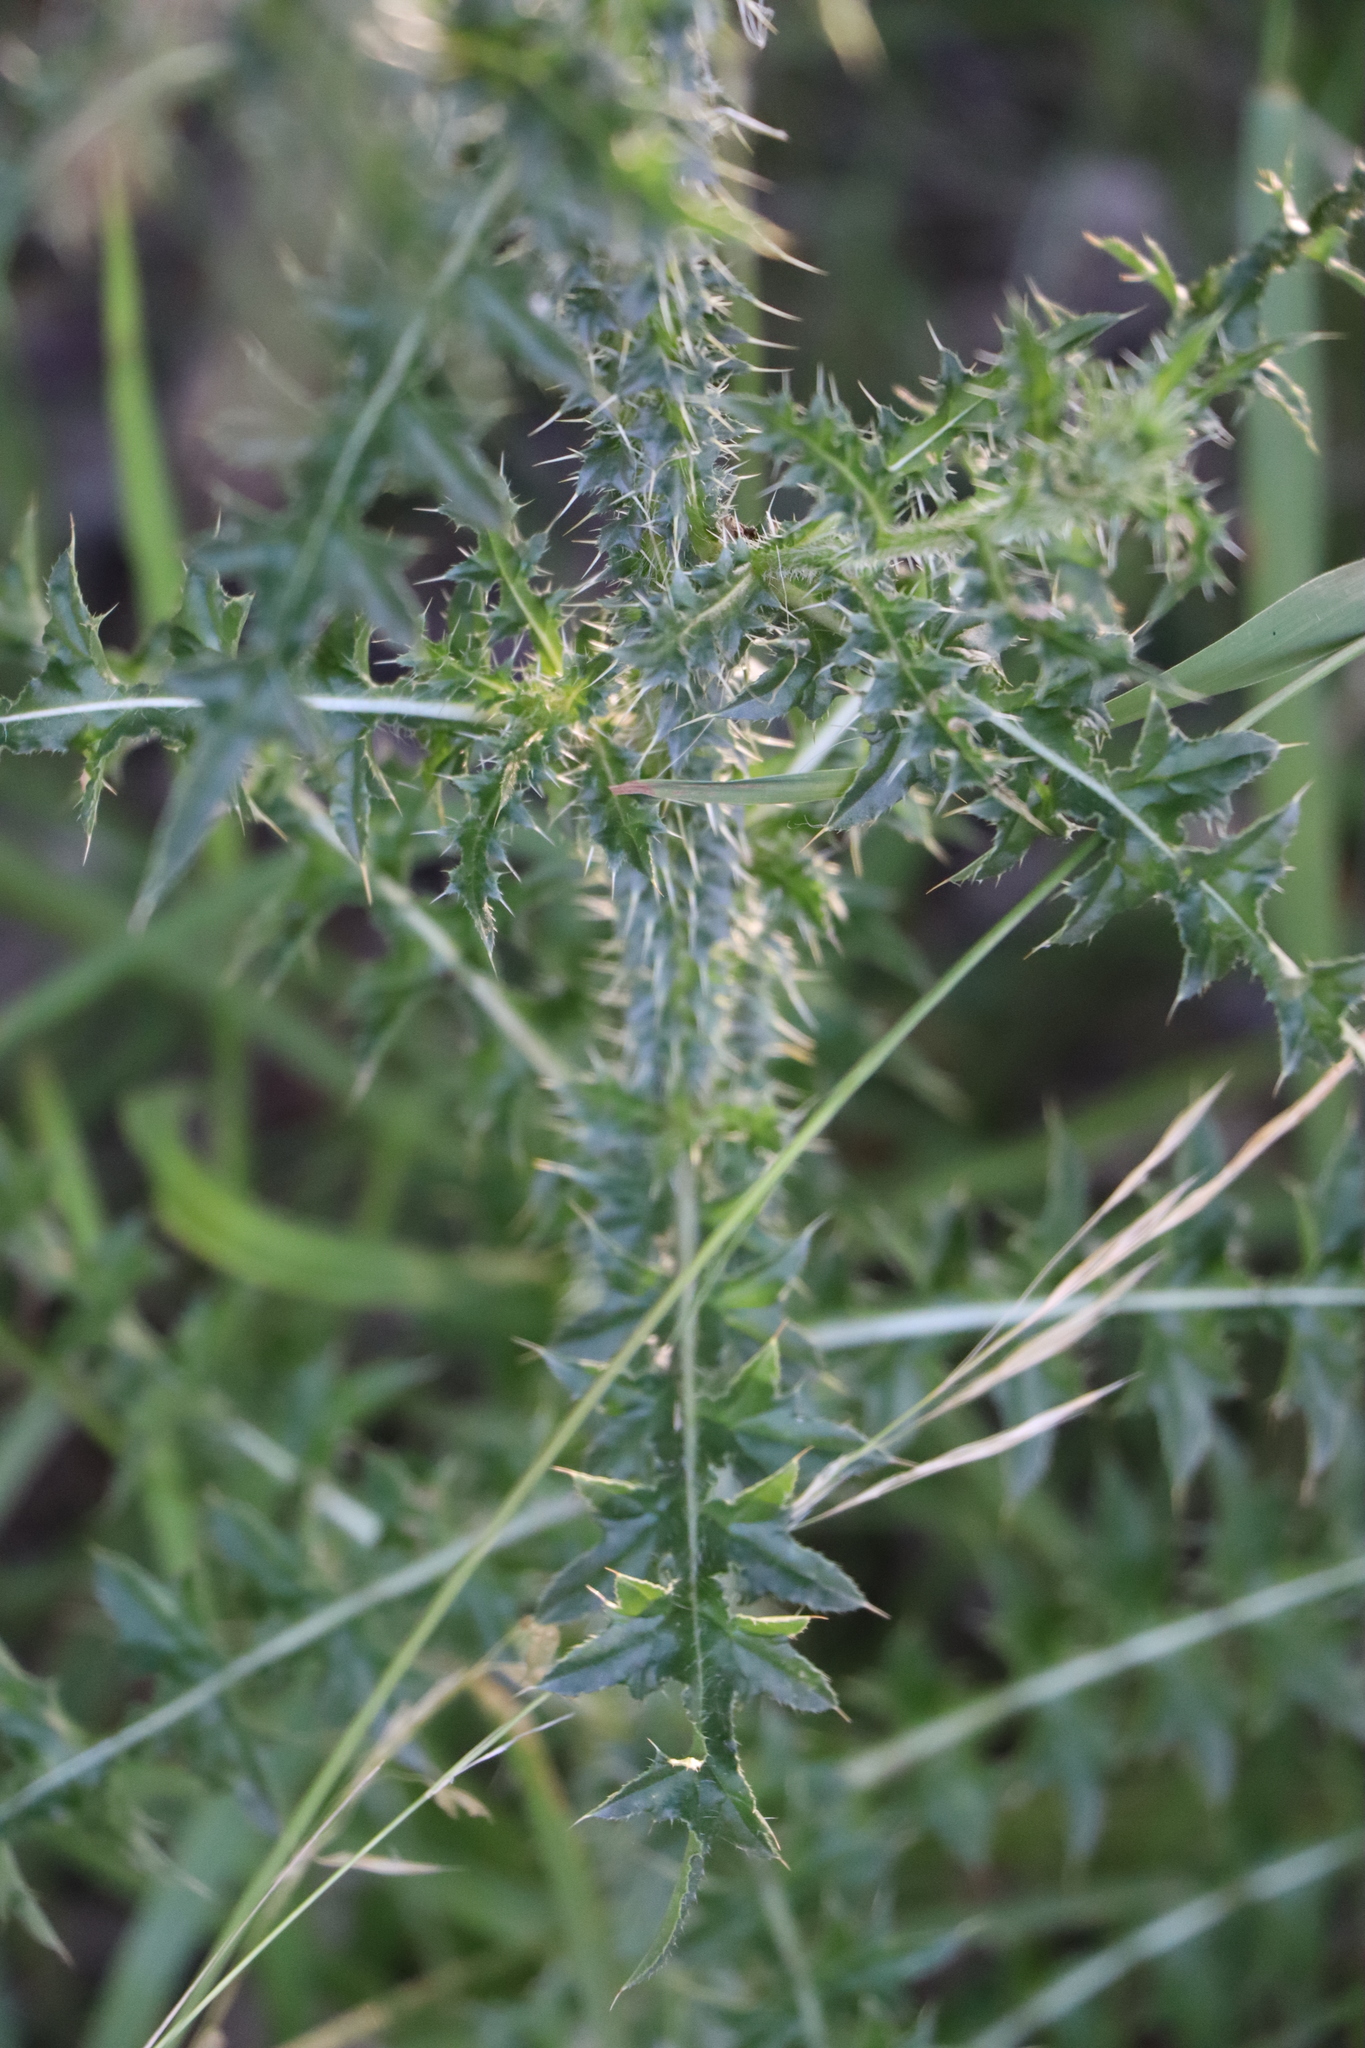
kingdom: Plantae
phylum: Tracheophyta
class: Magnoliopsida
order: Asterales
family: Asteraceae
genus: Carduus
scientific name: Carduus acanthoides
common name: Plumeless thistle
